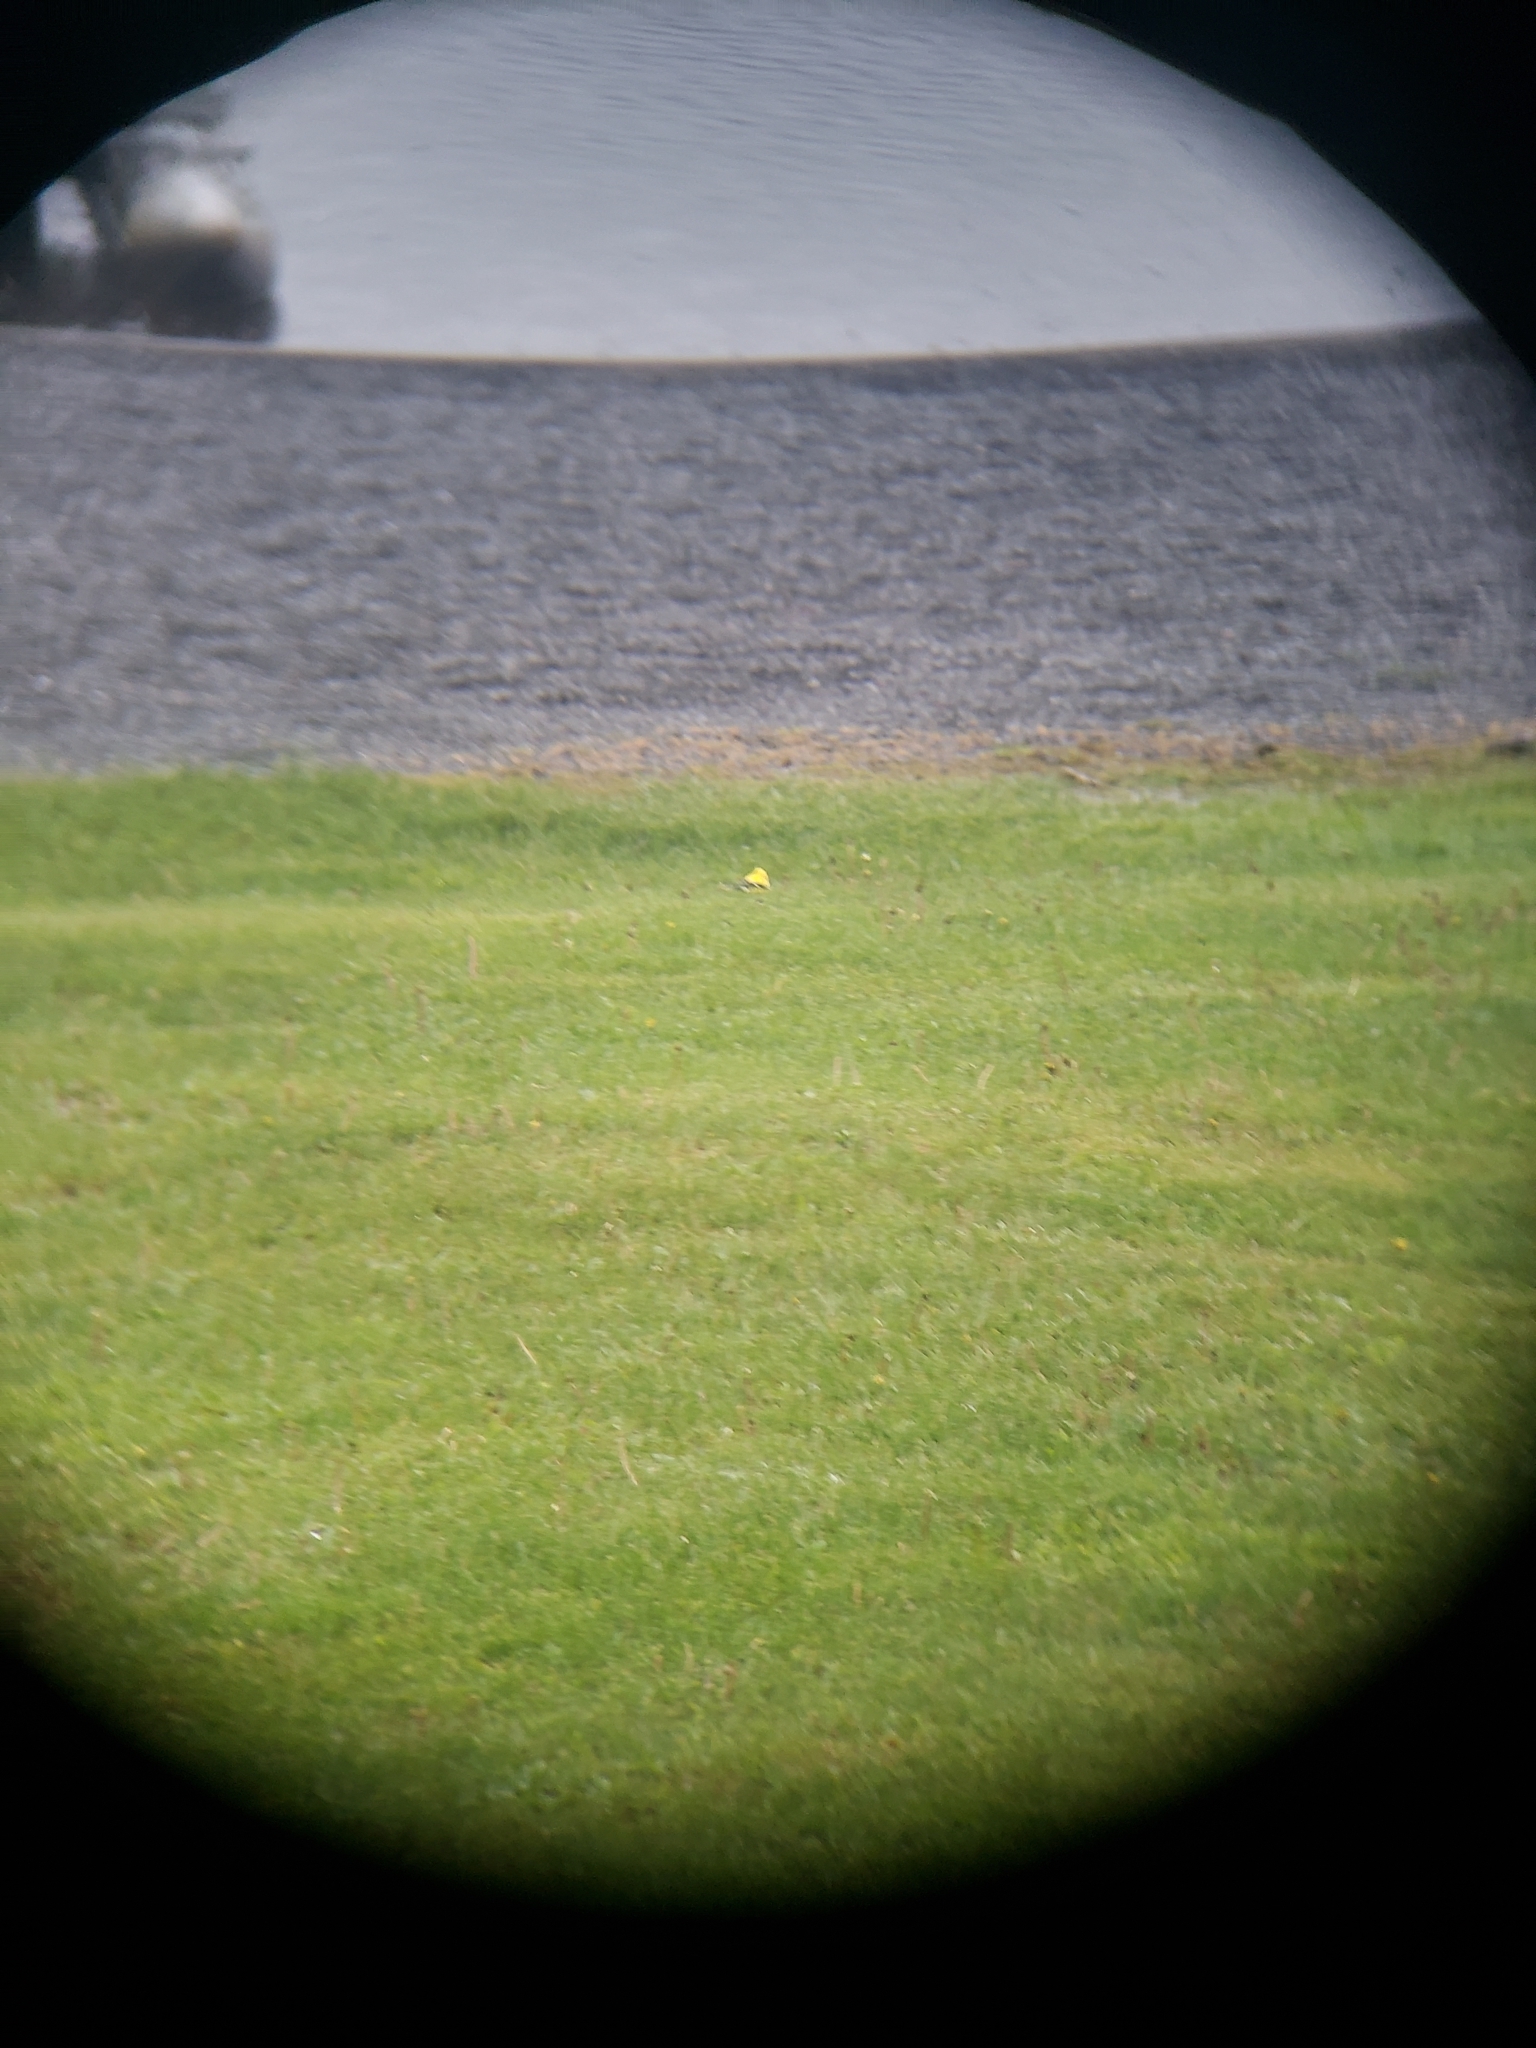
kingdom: Animalia
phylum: Chordata
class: Aves
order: Passeriformes
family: Fringillidae
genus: Spinus
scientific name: Spinus tristis
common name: American goldfinch
